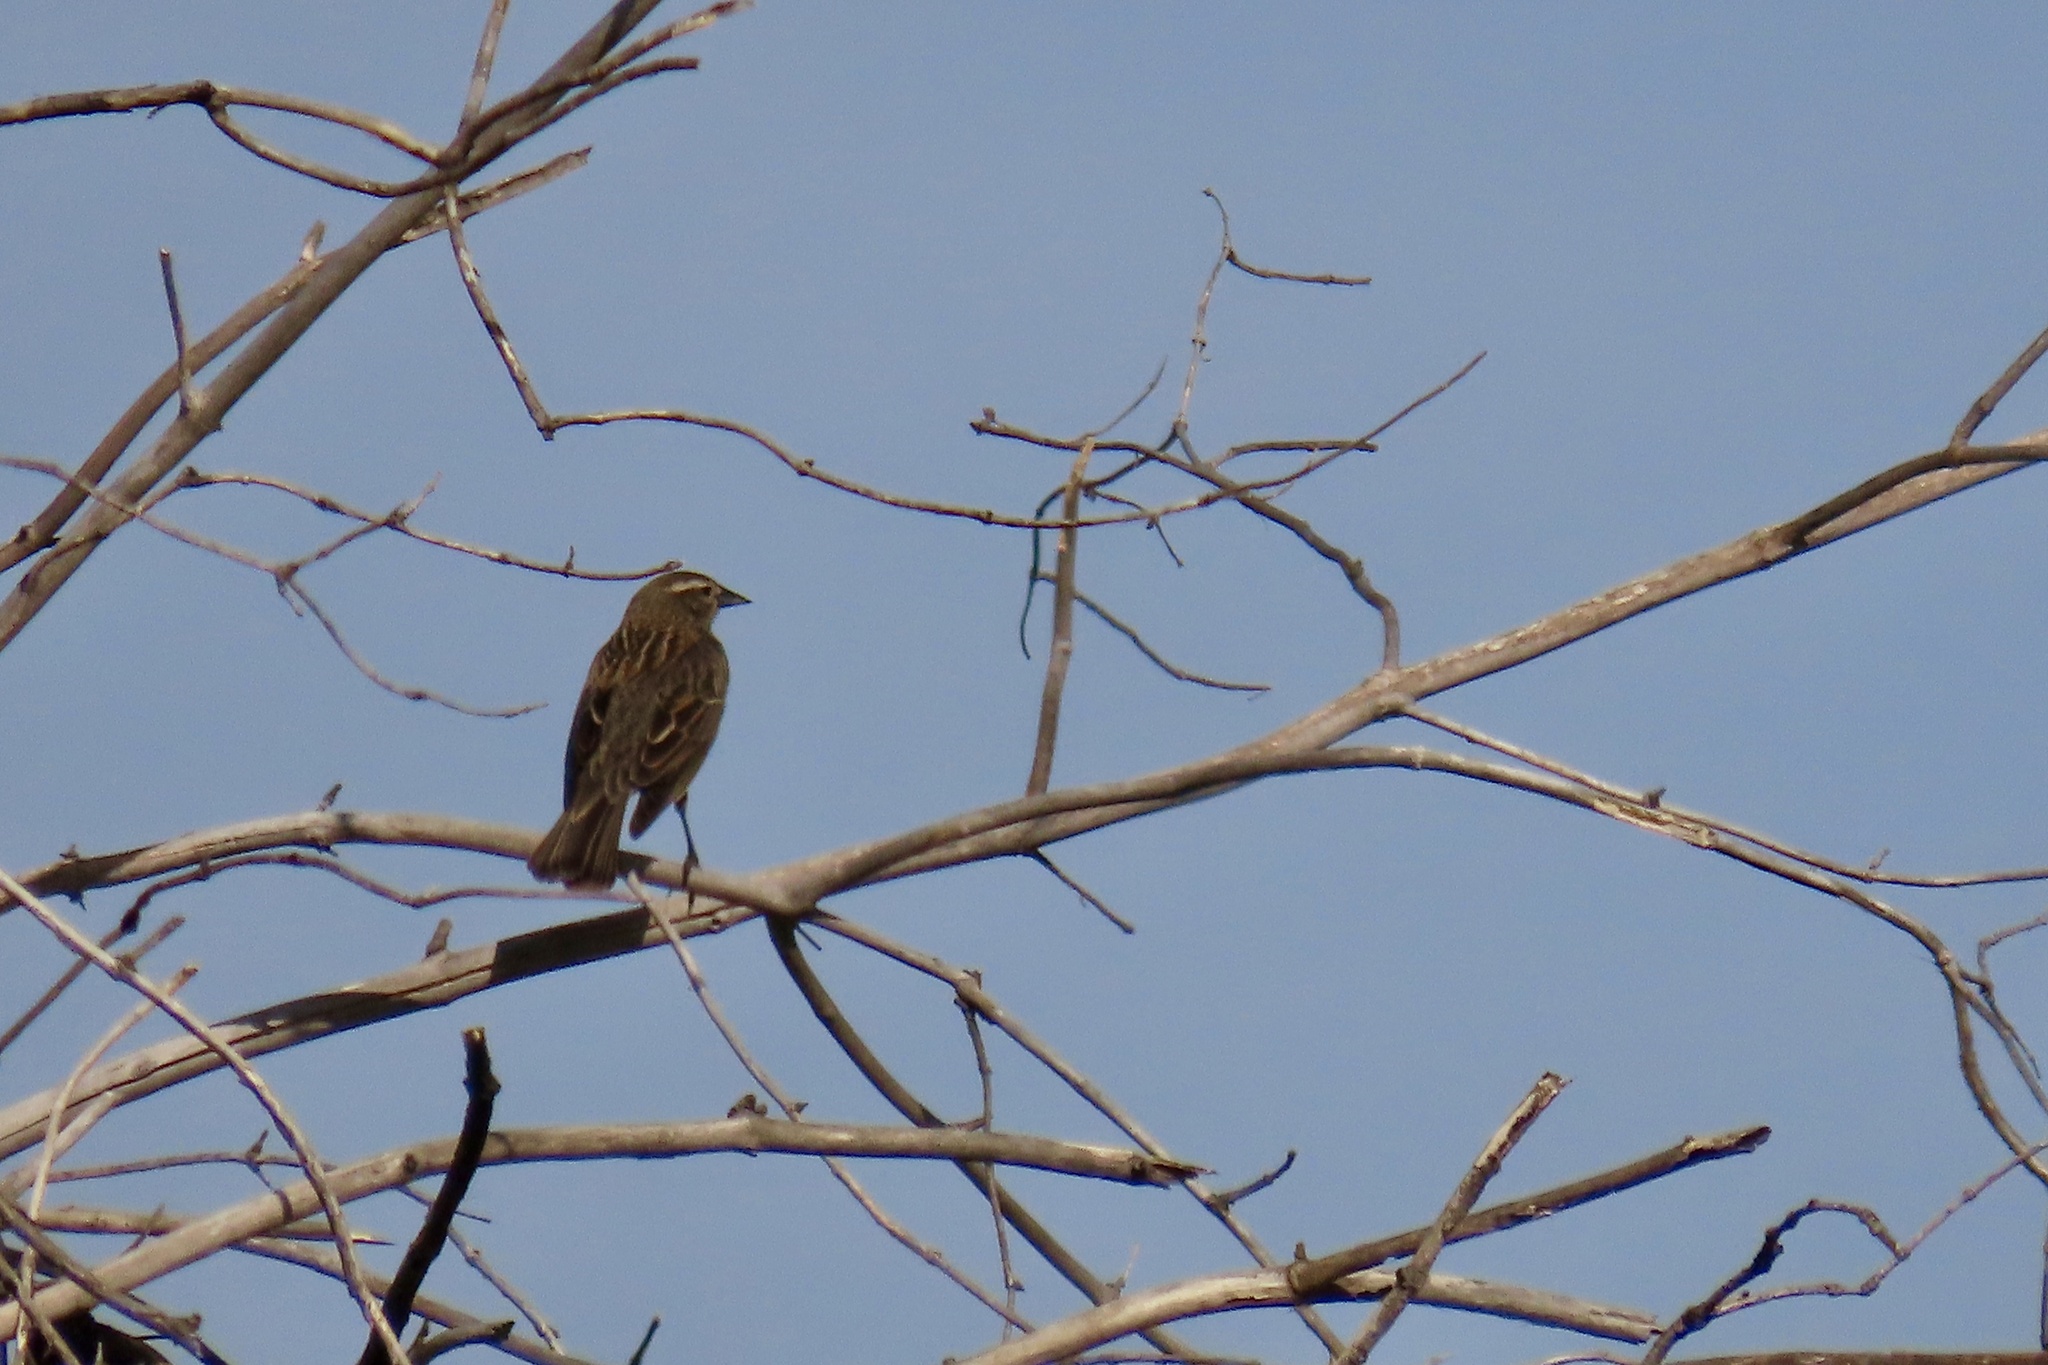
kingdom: Animalia
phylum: Chordata
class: Aves
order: Passeriformes
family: Icteridae
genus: Agelaius
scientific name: Agelaius phoeniceus
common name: Red-winged blackbird
